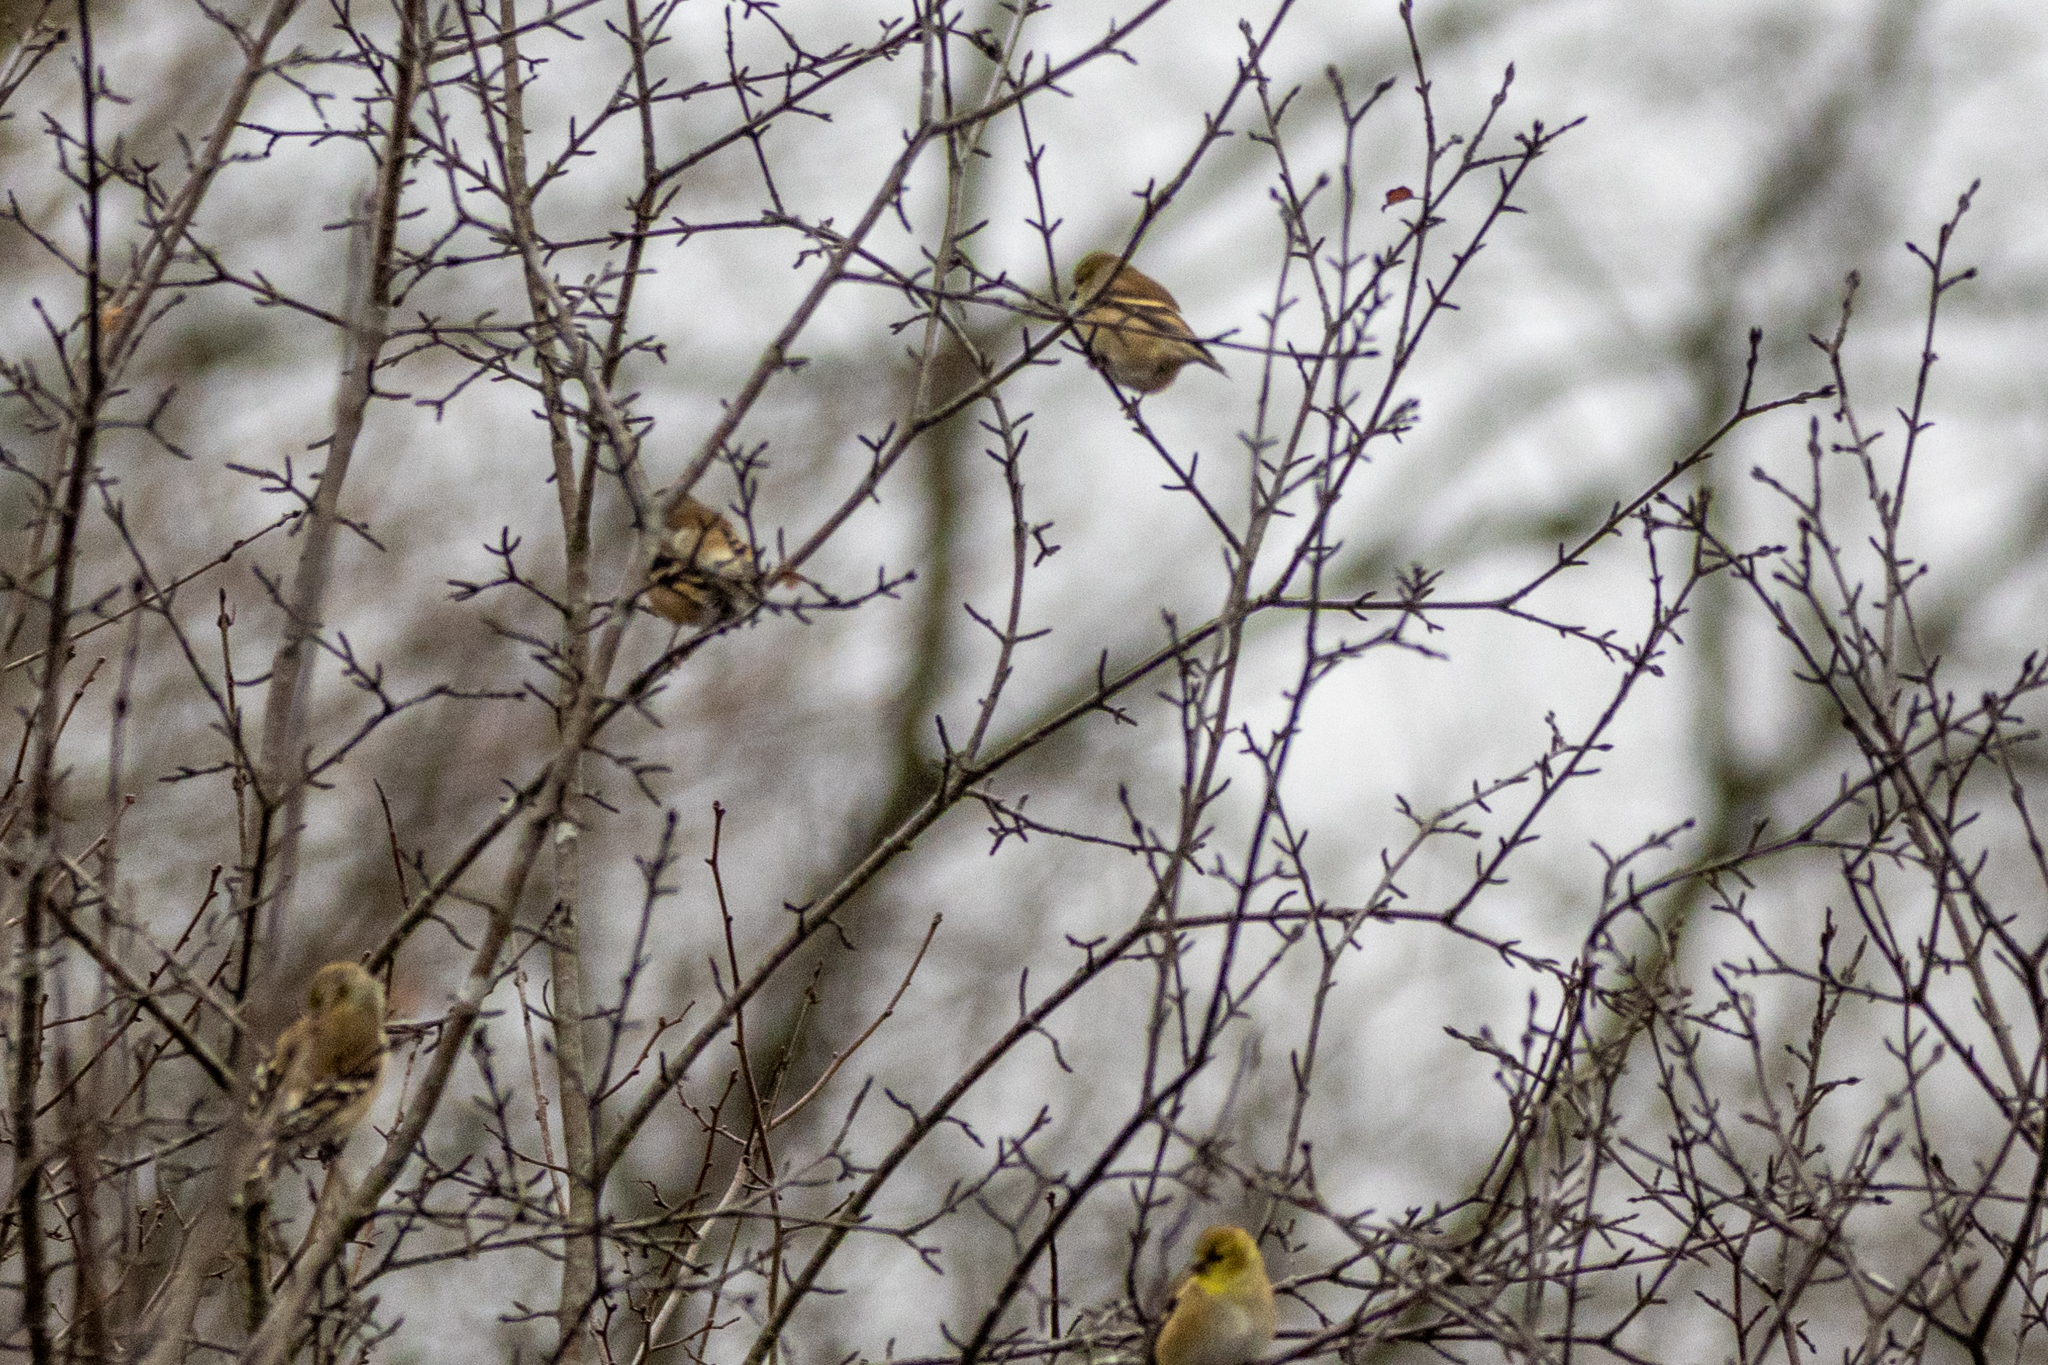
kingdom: Animalia
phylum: Chordata
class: Aves
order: Passeriformes
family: Fringillidae
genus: Spinus
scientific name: Spinus tristis
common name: American goldfinch
